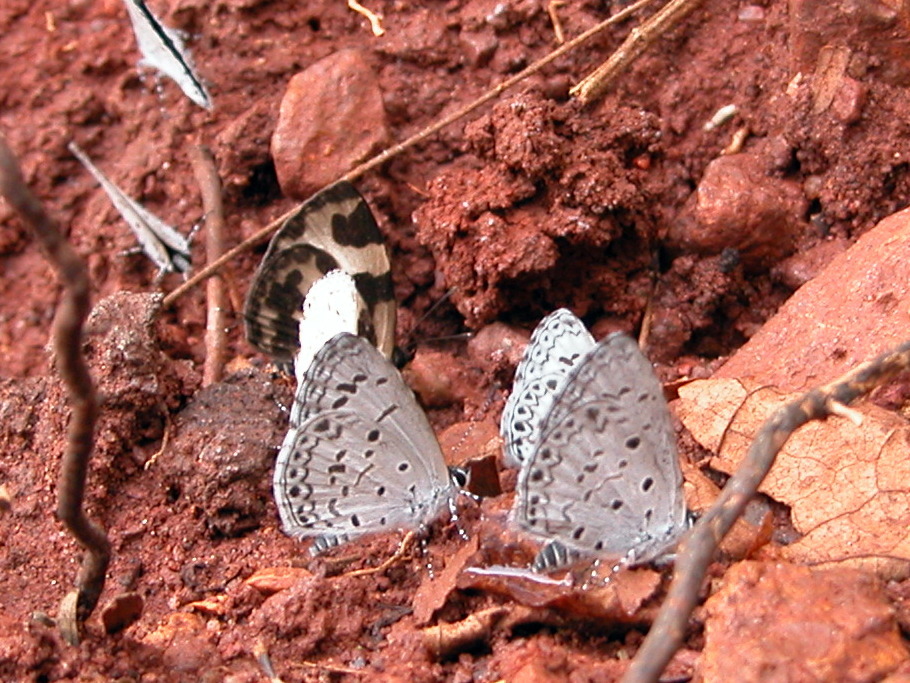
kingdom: Animalia
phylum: Arthropoda
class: Insecta
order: Lepidoptera
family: Lycaenidae
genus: Acytolepis
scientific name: Acytolepis puspa
